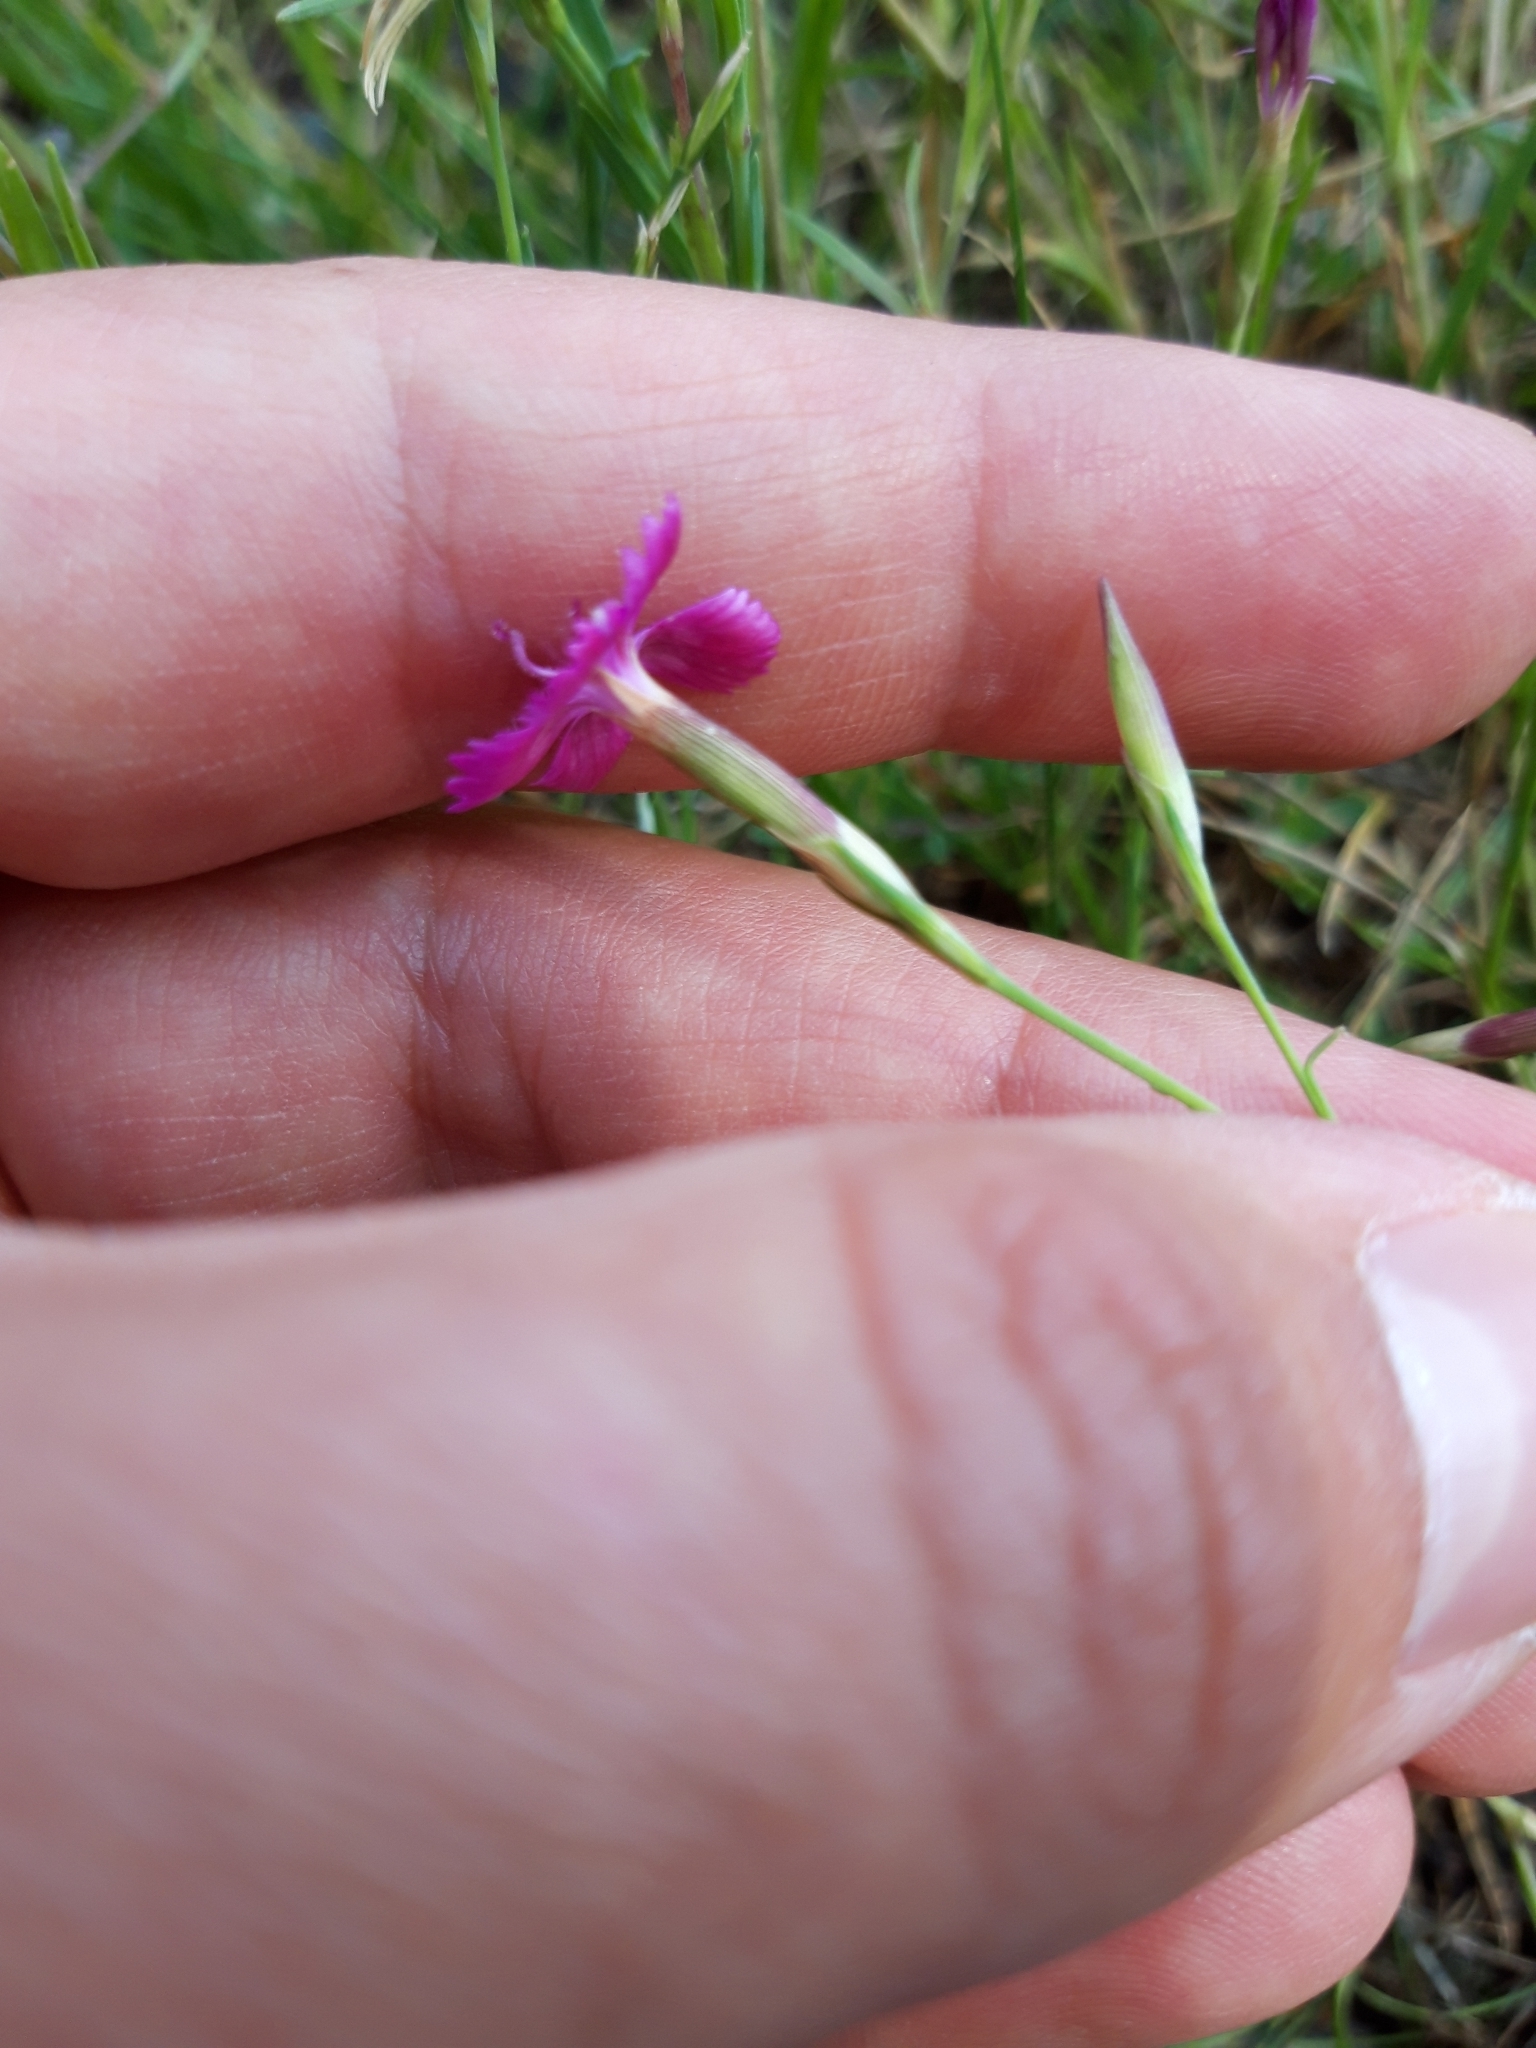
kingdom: Plantae
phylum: Tracheophyta
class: Magnoliopsida
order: Caryophyllales
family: Caryophyllaceae
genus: Dianthus
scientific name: Dianthus deltoides
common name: Maiden pink
